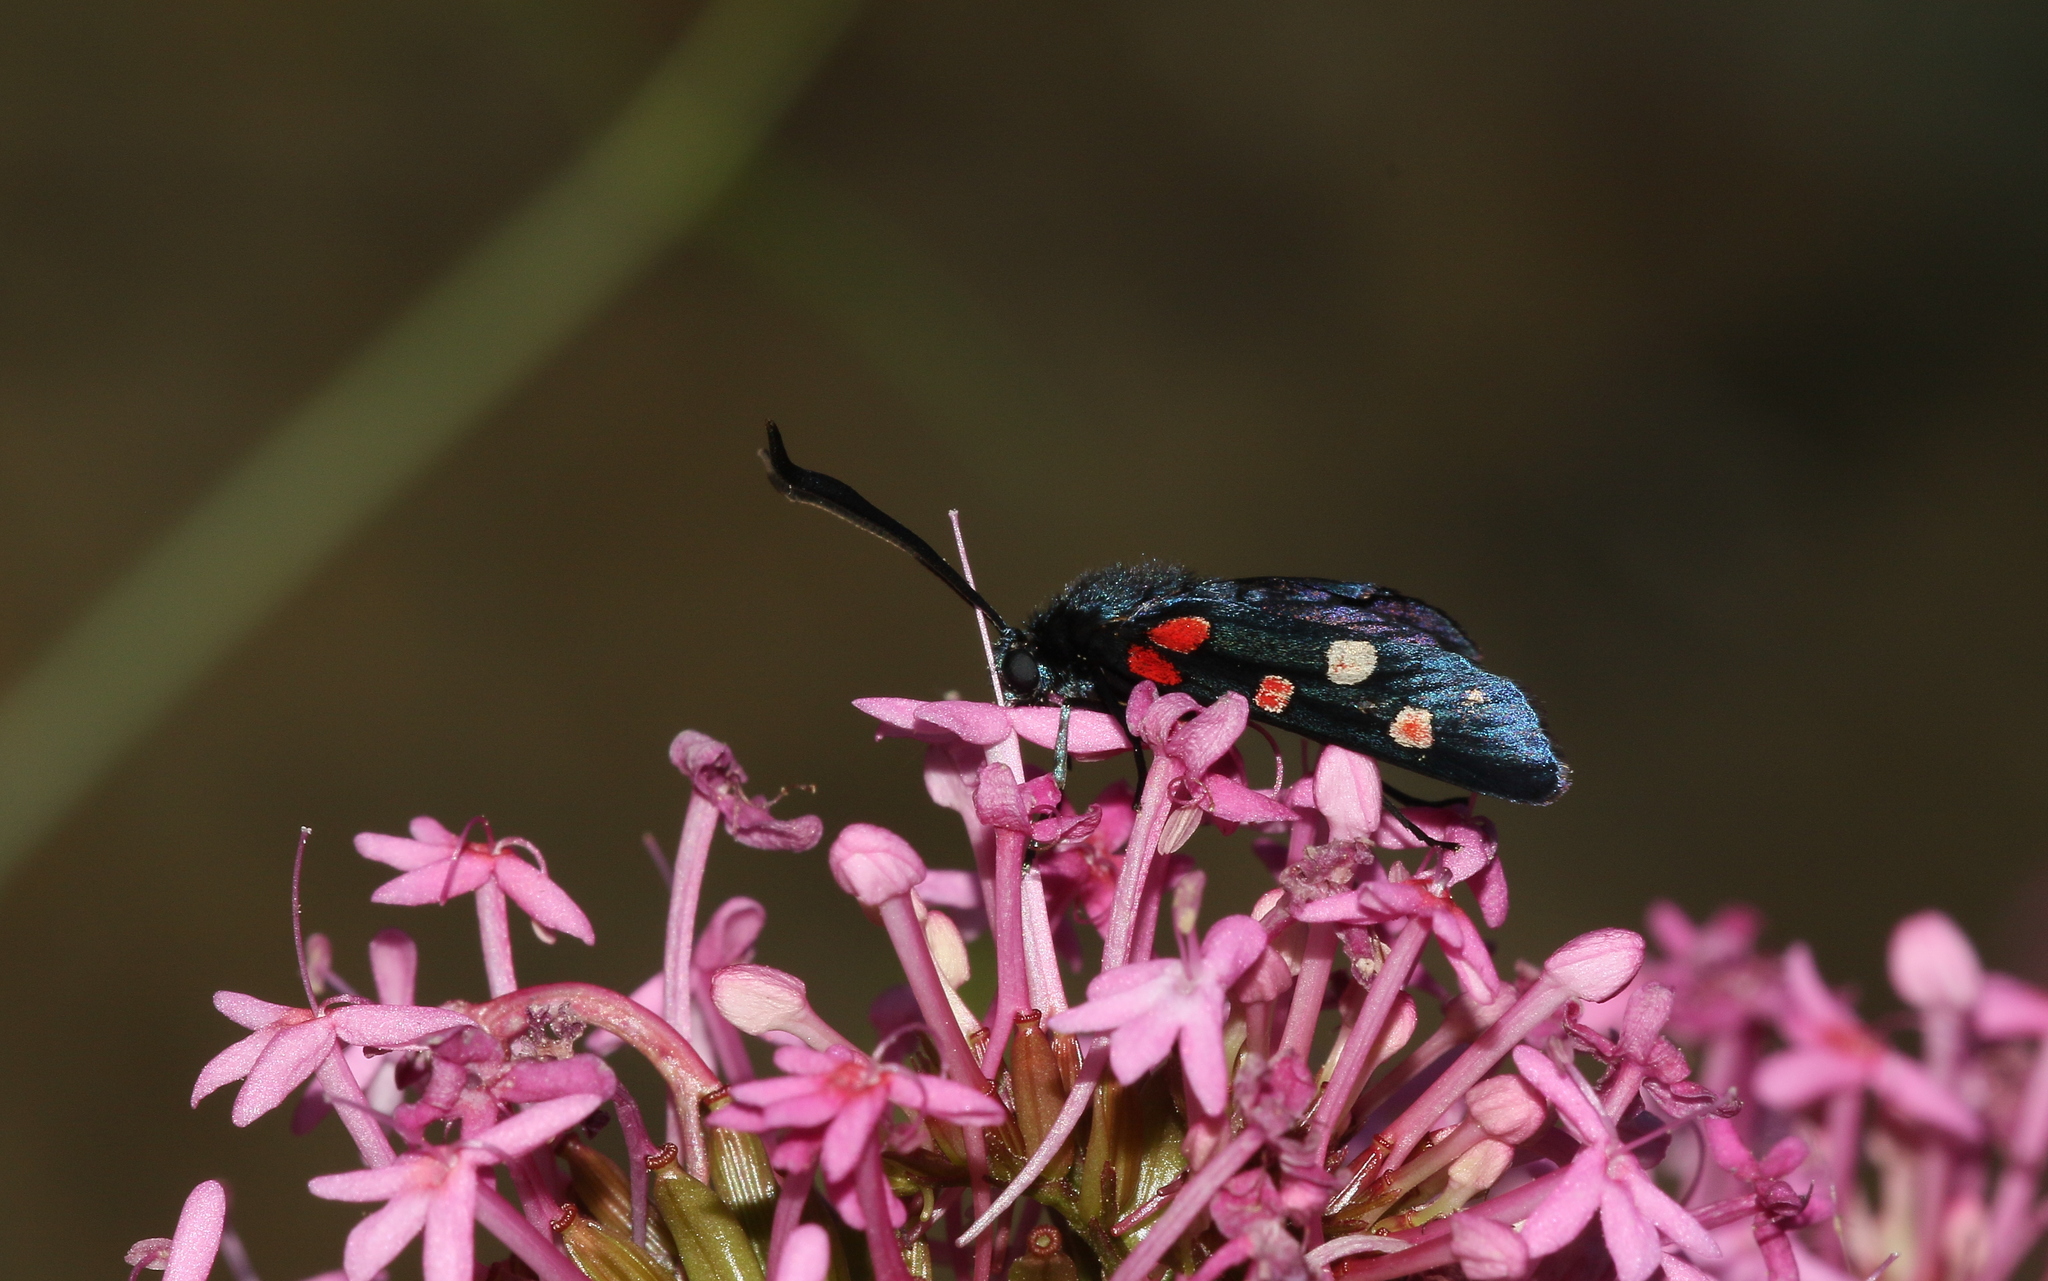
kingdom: Animalia
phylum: Arthropoda
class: Insecta
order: Lepidoptera
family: Zygaenidae
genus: Zygaena
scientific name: Zygaena ephialtes
